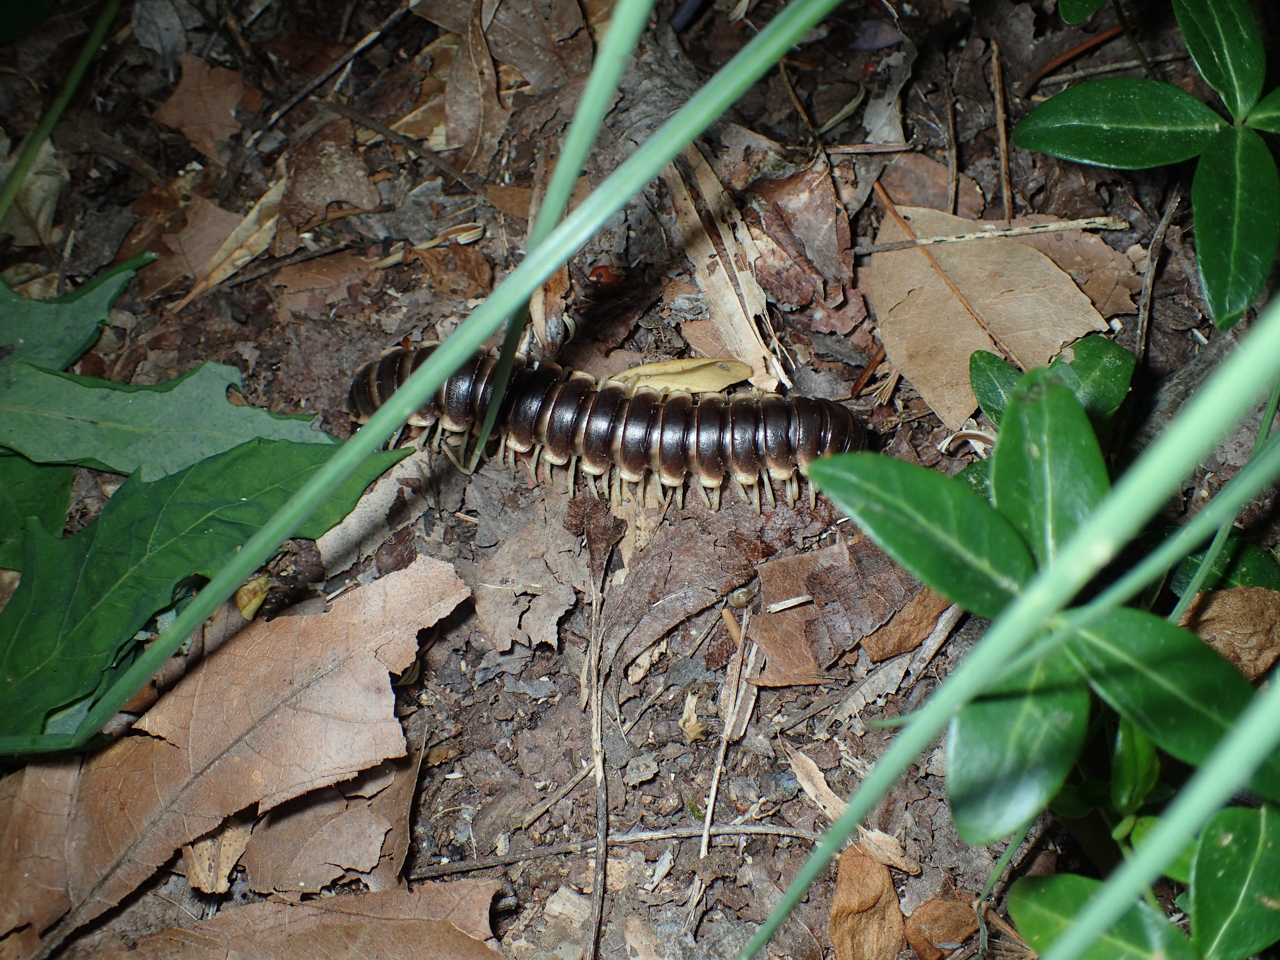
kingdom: Animalia
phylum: Arthropoda
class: Diplopoda
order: Polydesmida
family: Xystodesmidae
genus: Pachydesmus
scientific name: Pachydesmus hubrichti
